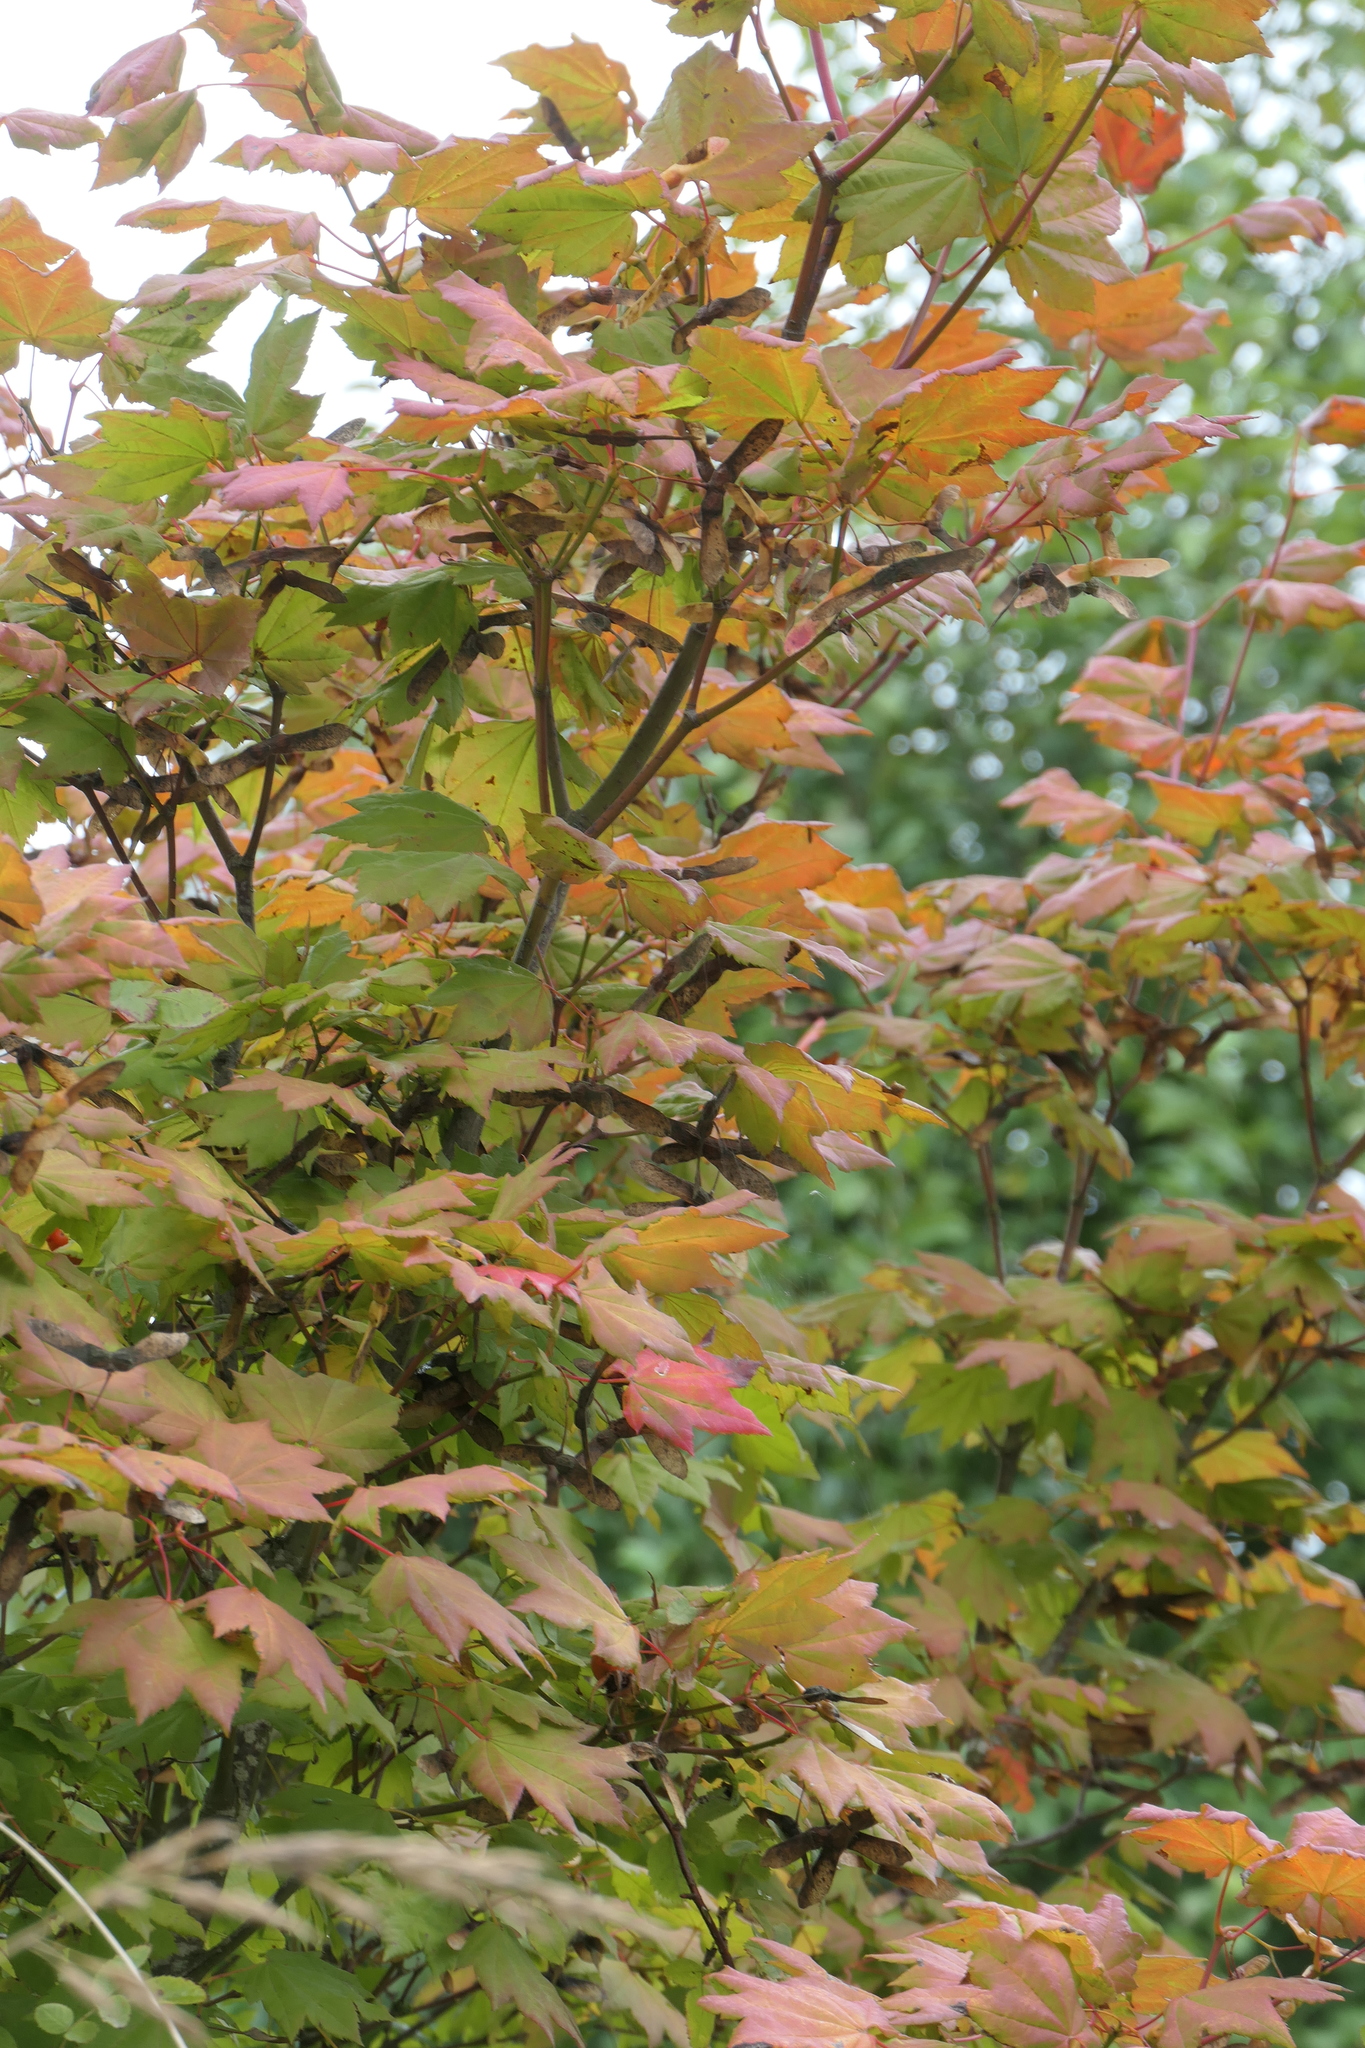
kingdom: Plantae
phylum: Tracheophyta
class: Magnoliopsida
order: Sapindales
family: Sapindaceae
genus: Acer
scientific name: Acer circinatum
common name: Vine maple
